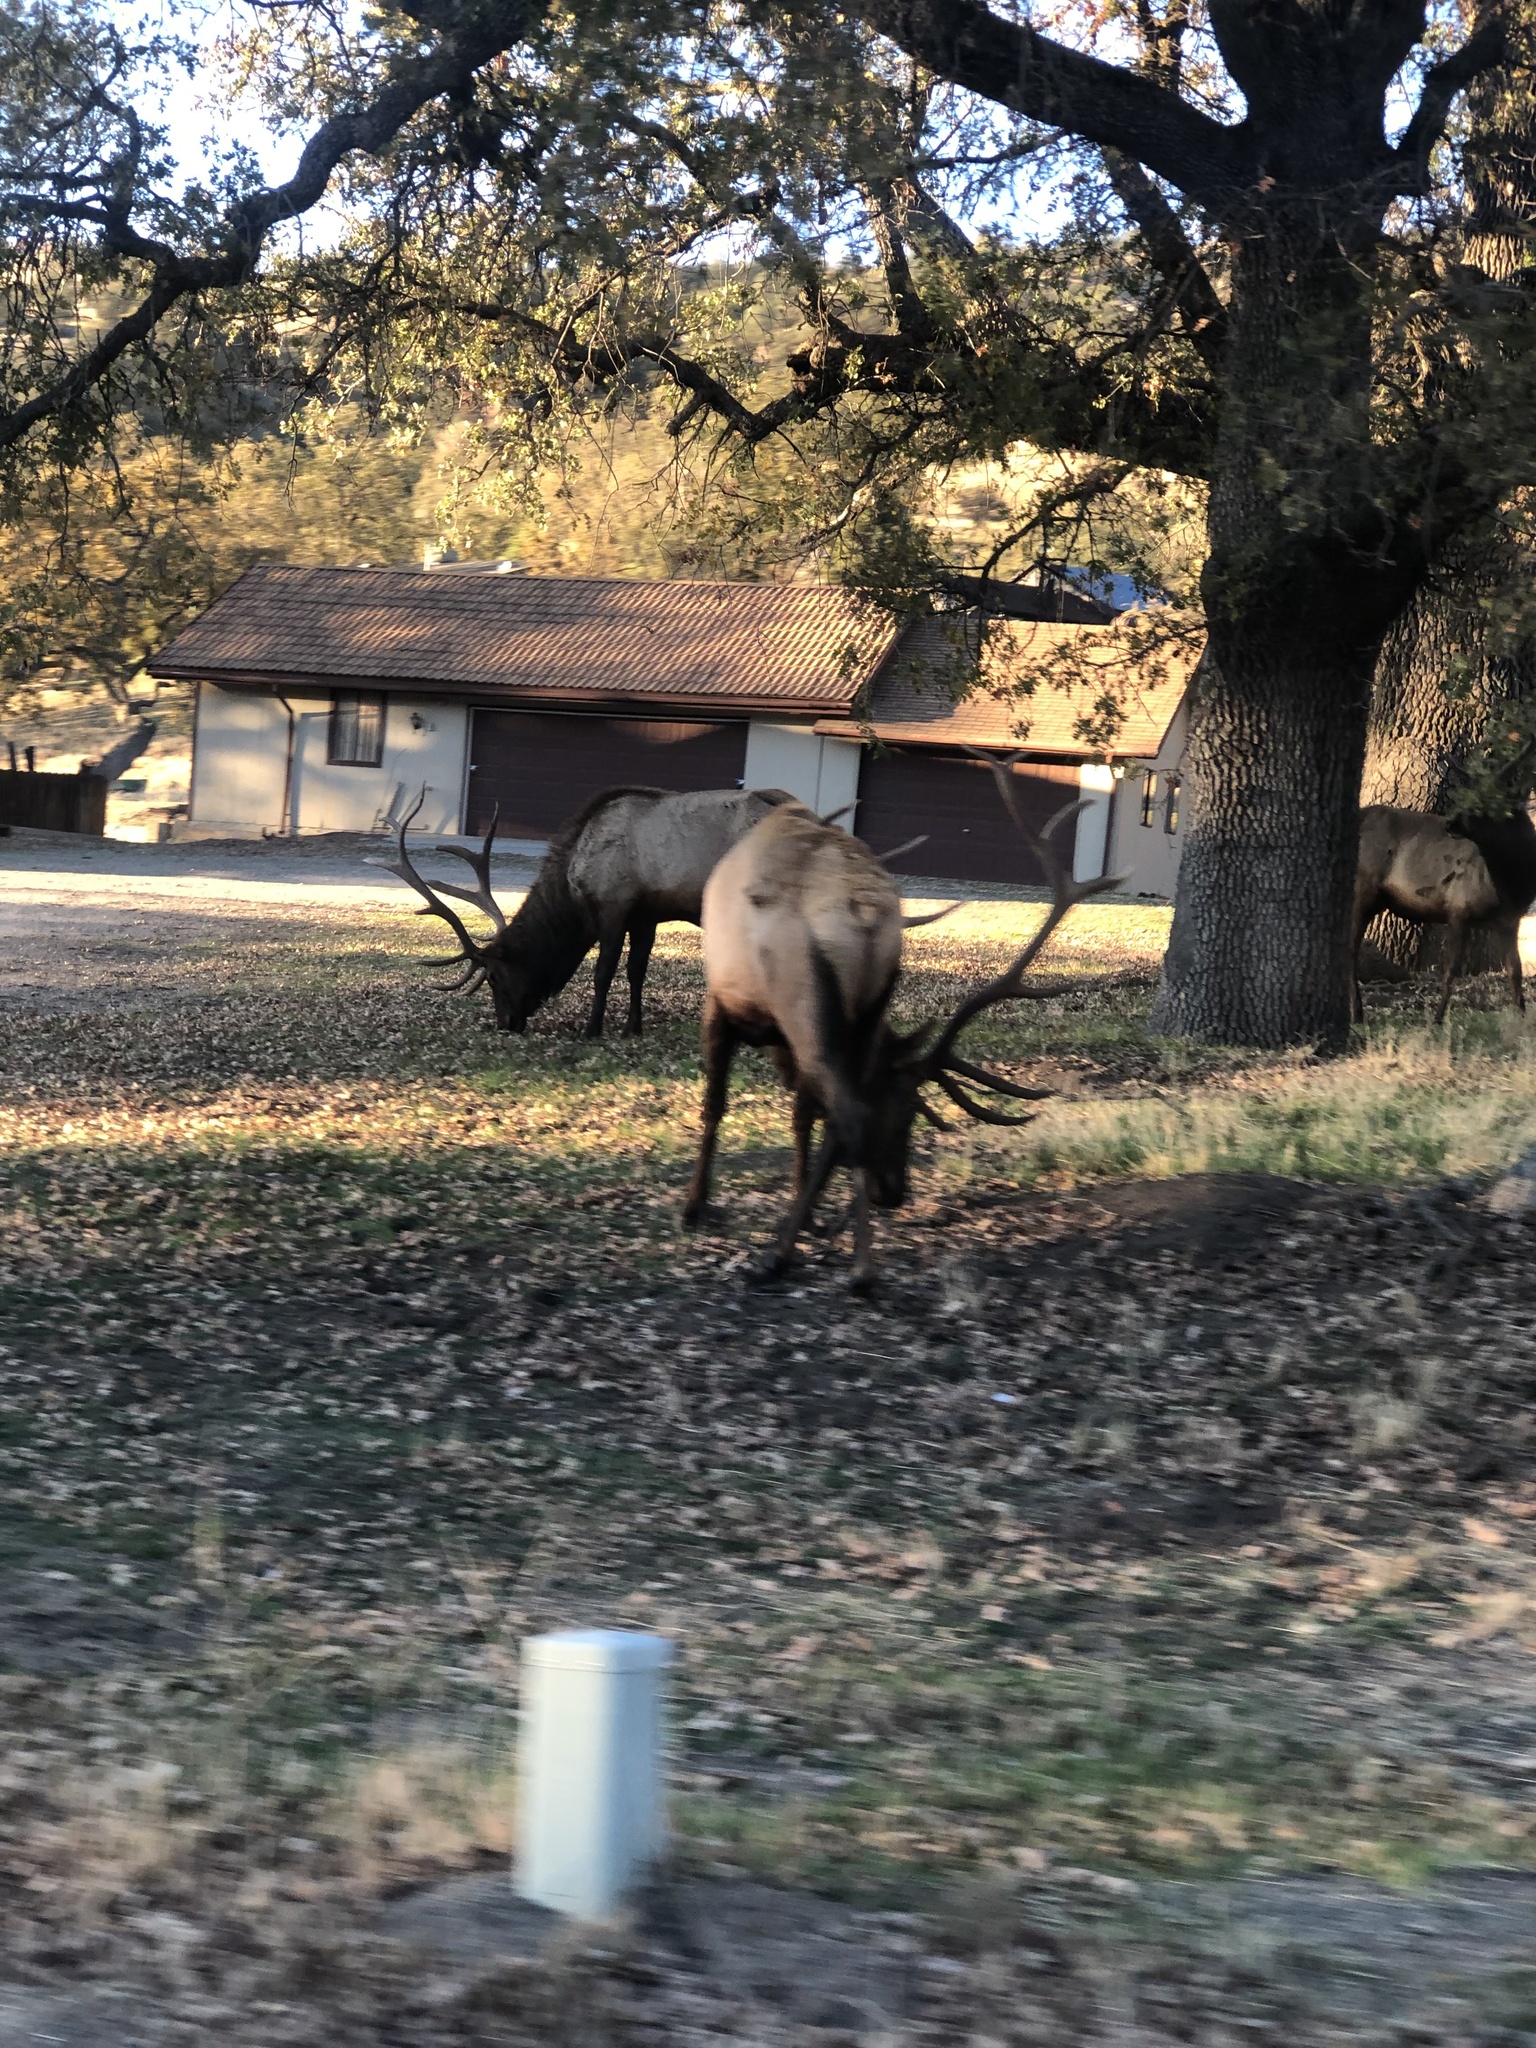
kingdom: Animalia
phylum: Chordata
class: Mammalia
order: Artiodactyla
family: Cervidae
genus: Cervus
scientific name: Cervus elaphus
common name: Red deer
